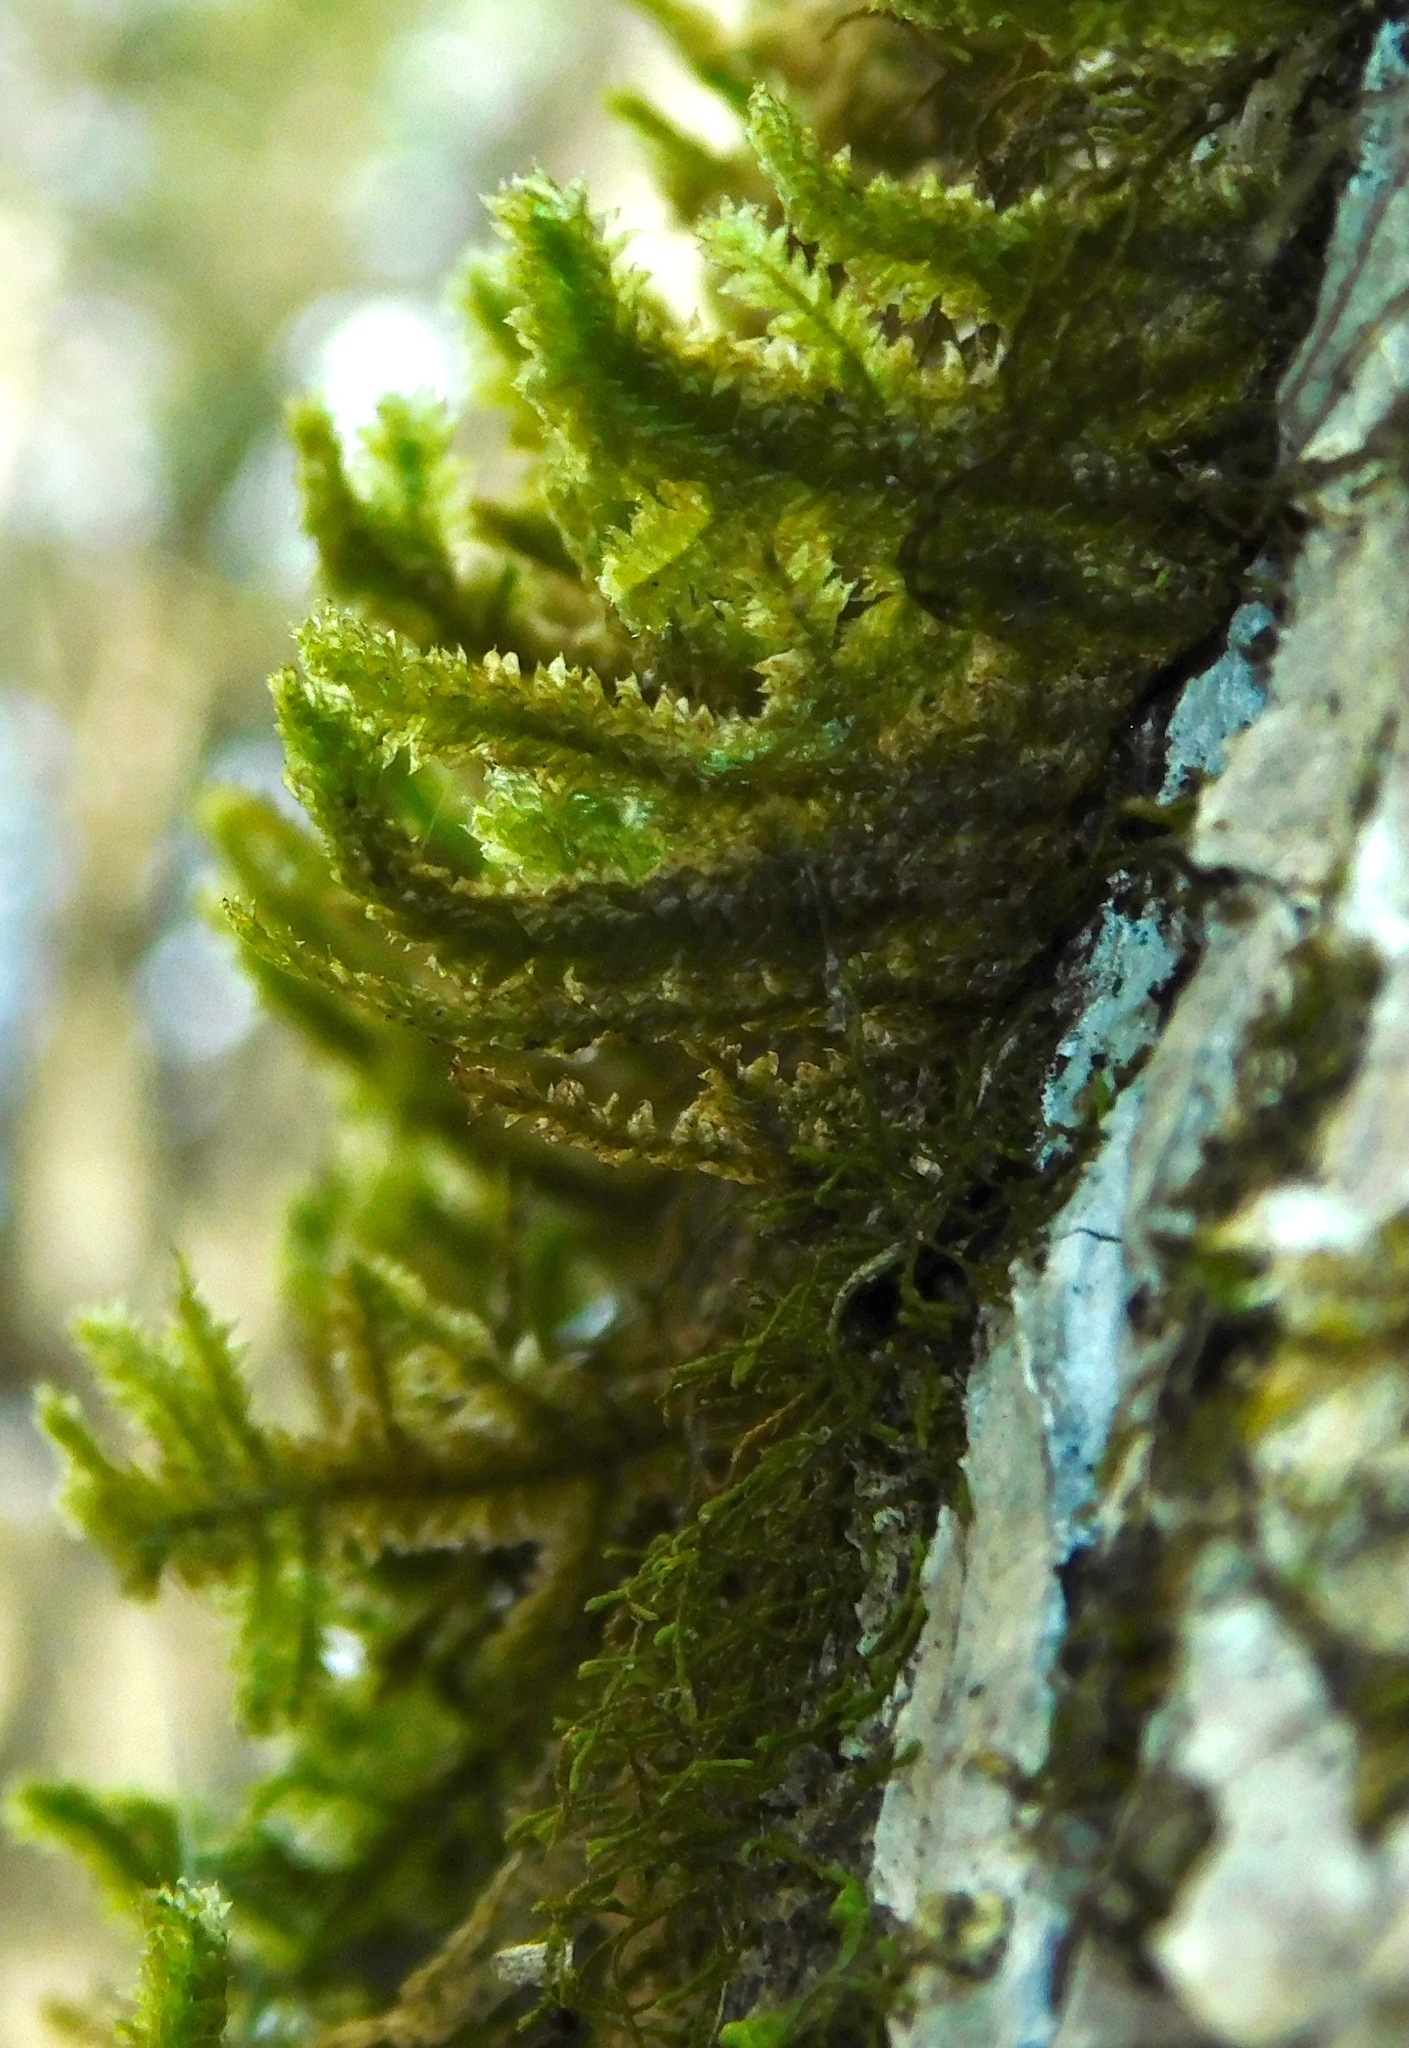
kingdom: Plantae
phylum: Bryophyta
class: Bryopsida
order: Hypnales
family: Neckeraceae
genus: Neckera
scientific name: Neckera pennata
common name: Feathery neckera
